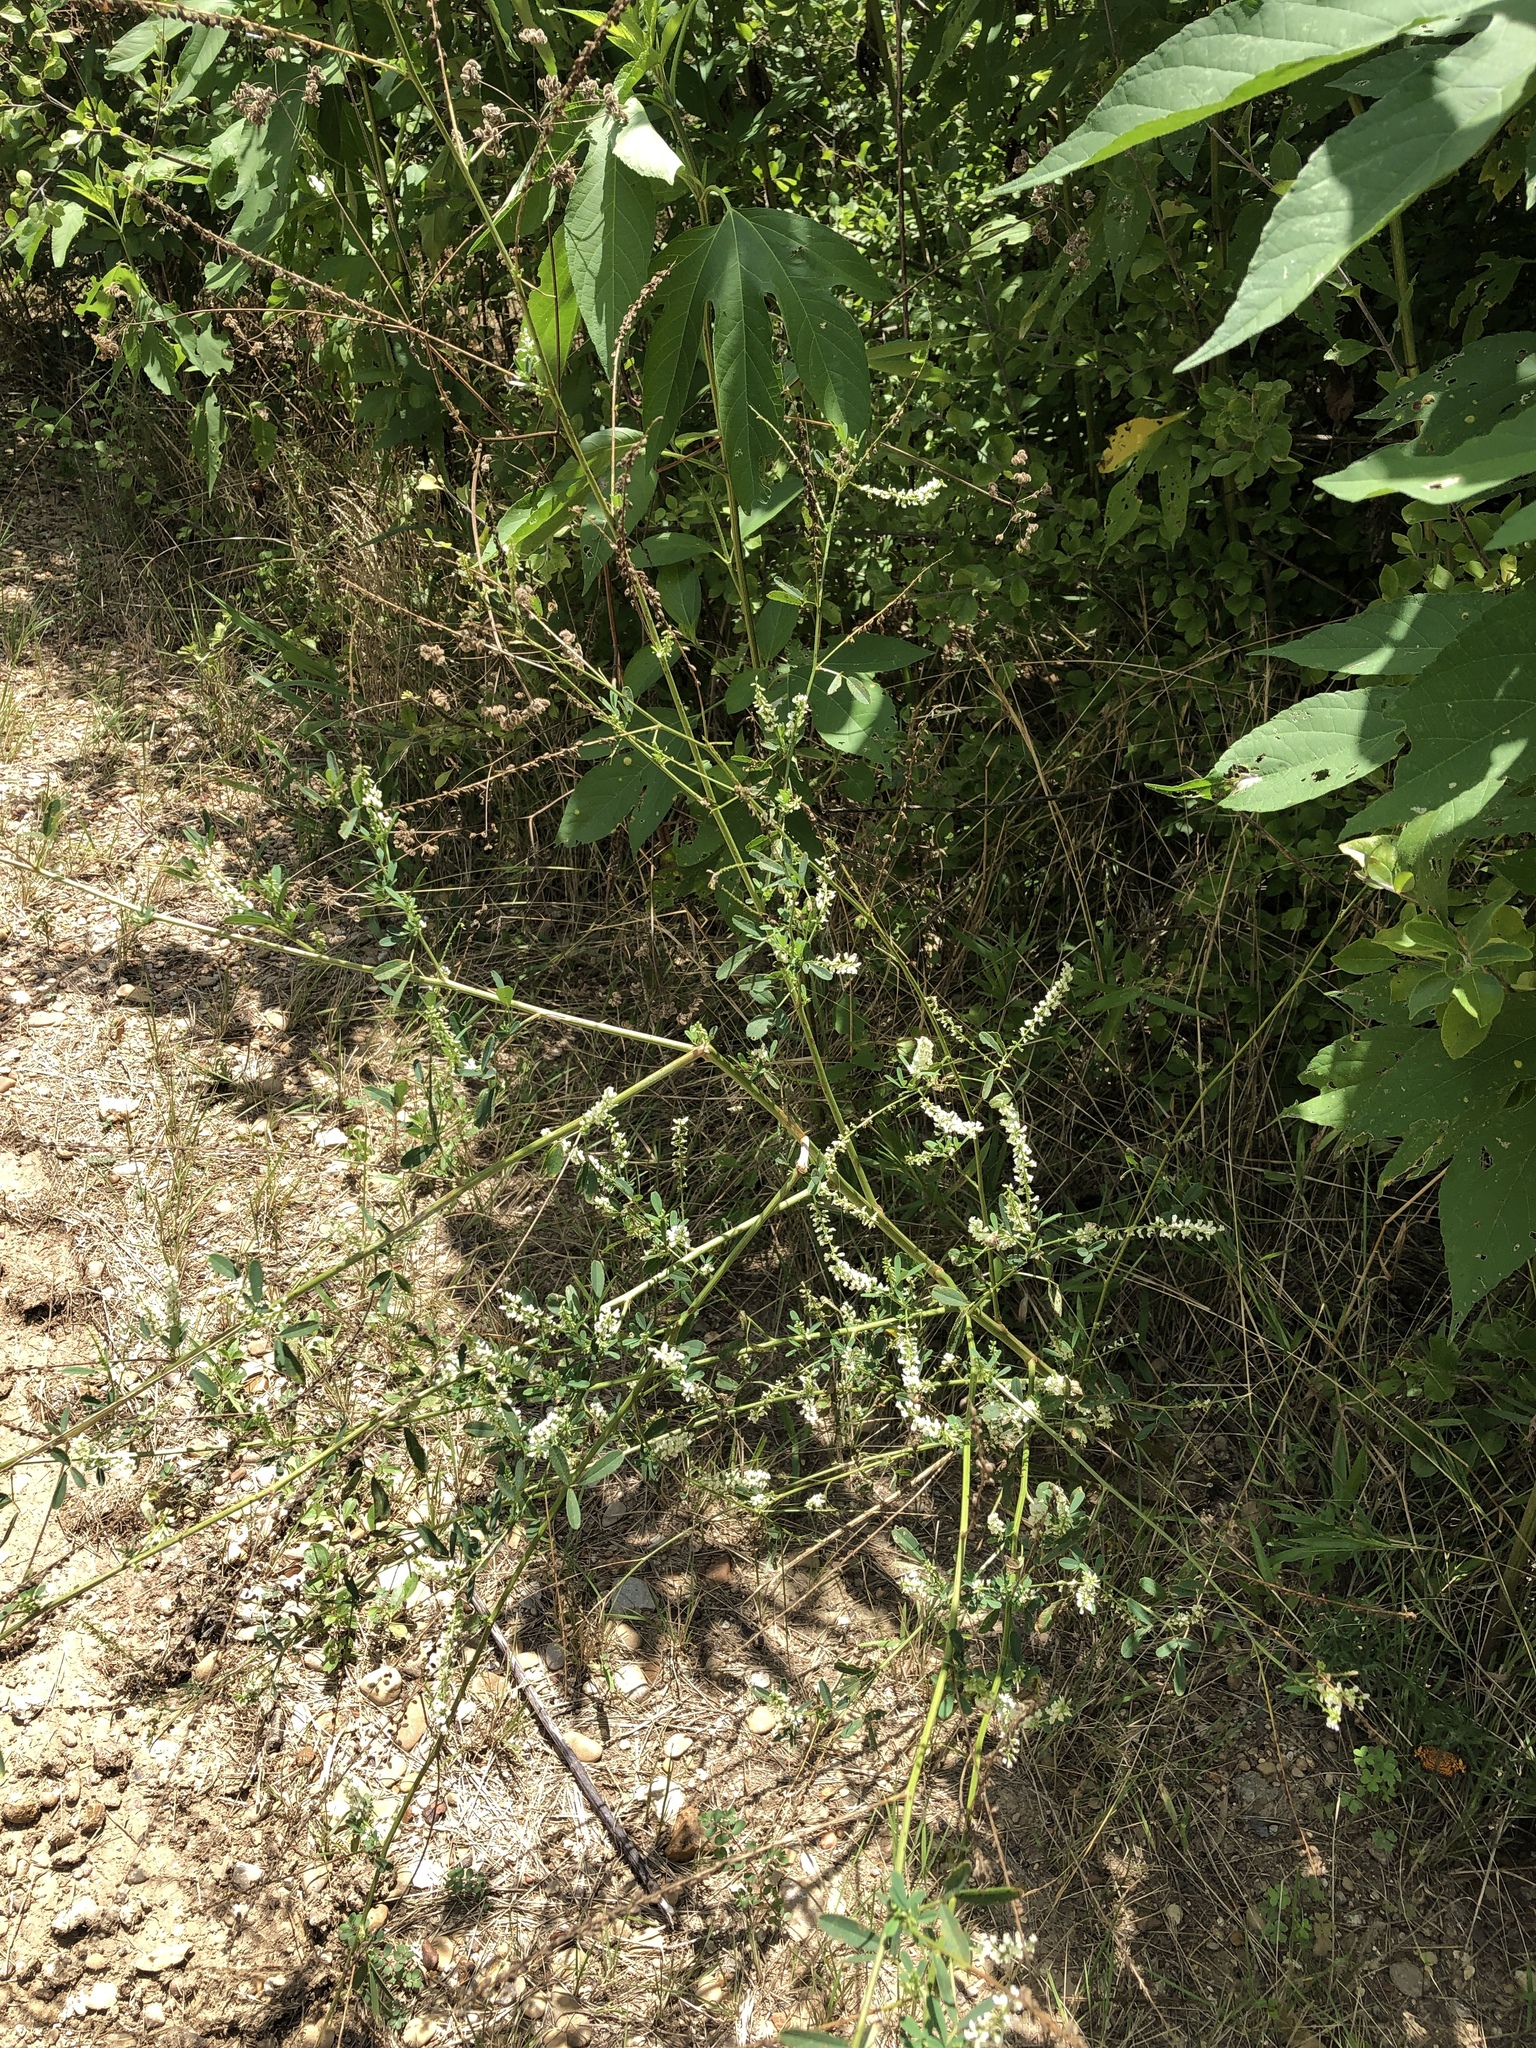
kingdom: Plantae
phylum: Tracheophyta
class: Magnoliopsida
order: Fabales
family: Fabaceae
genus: Melilotus
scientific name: Melilotus albus
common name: White melilot
